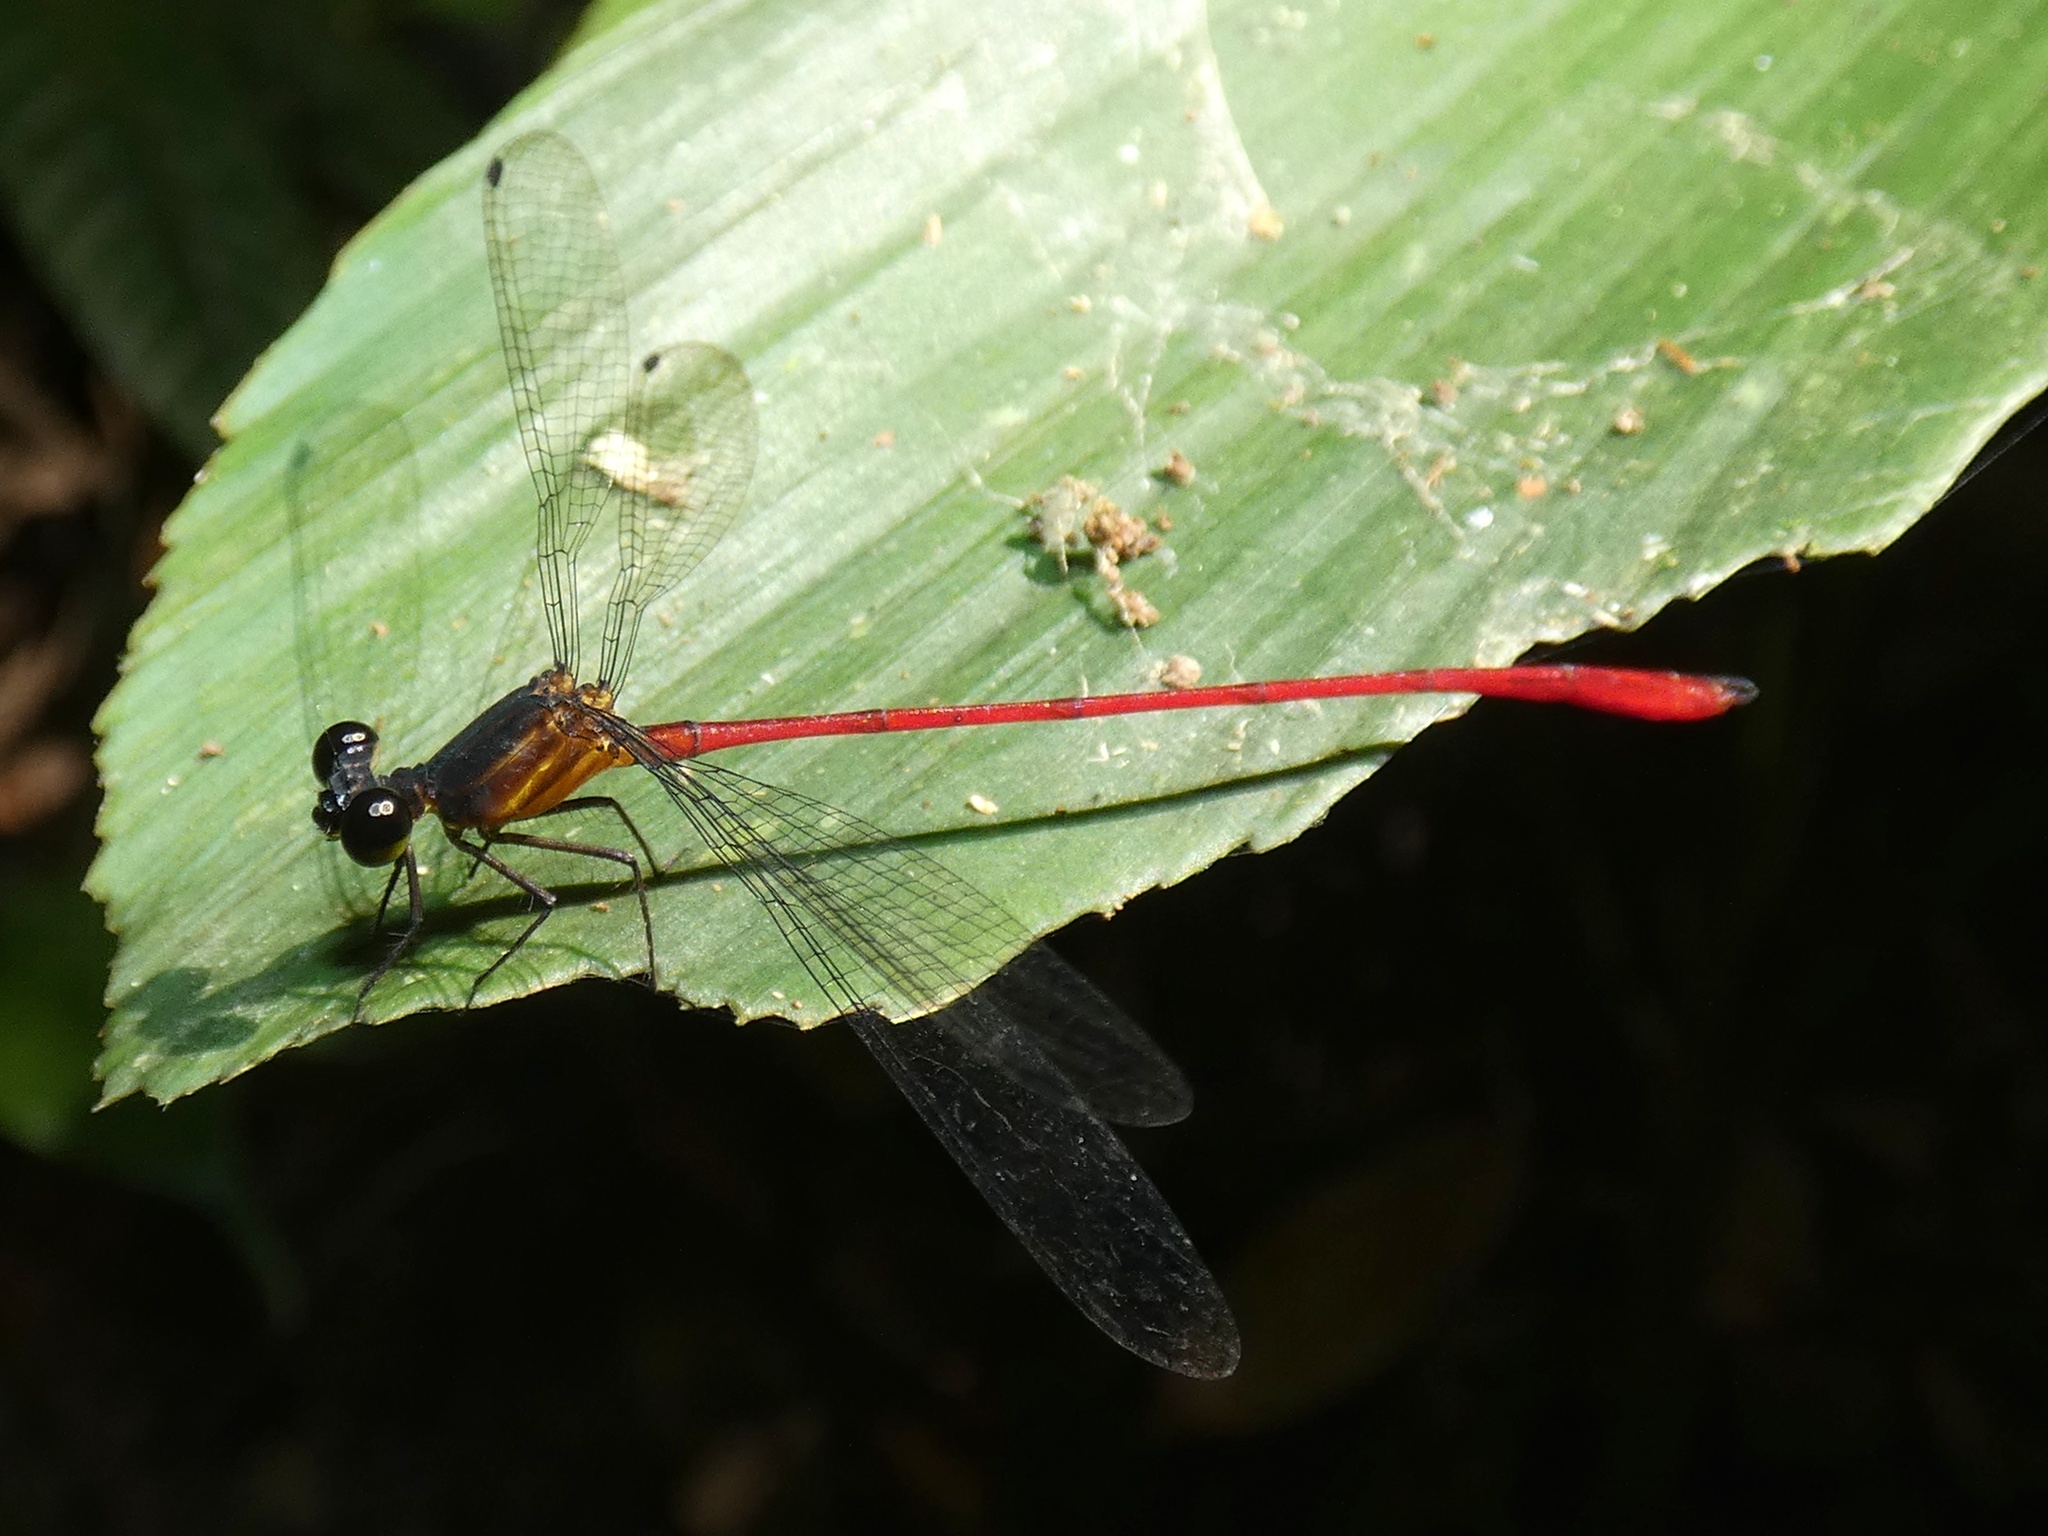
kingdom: Animalia
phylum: Arthropoda
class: Insecta
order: Odonata
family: Heteragrionidae
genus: Heteragrion
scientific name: Heteragrion erythrogastrum
